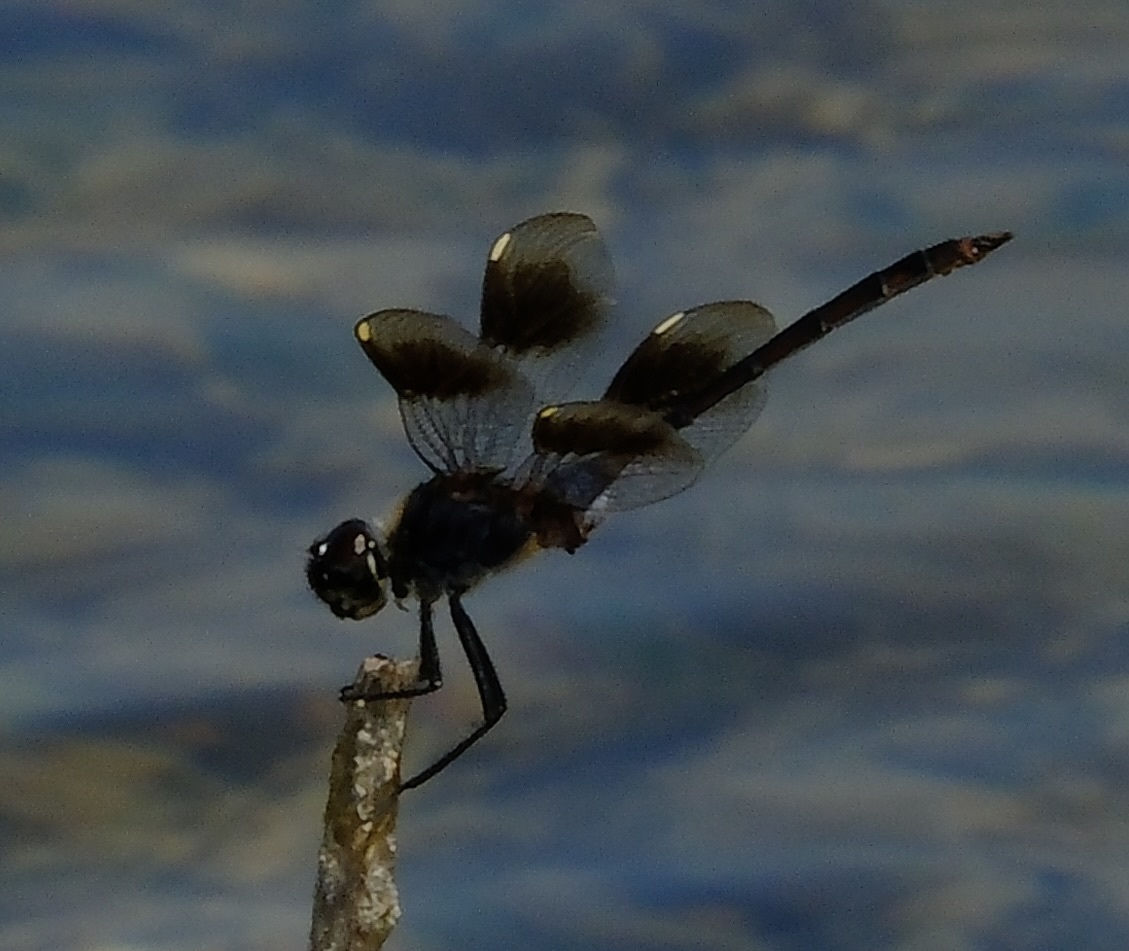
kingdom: Animalia
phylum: Arthropoda
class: Insecta
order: Odonata
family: Libellulidae
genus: Brachymesia
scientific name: Brachymesia gravida
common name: Four-spotted pennant
